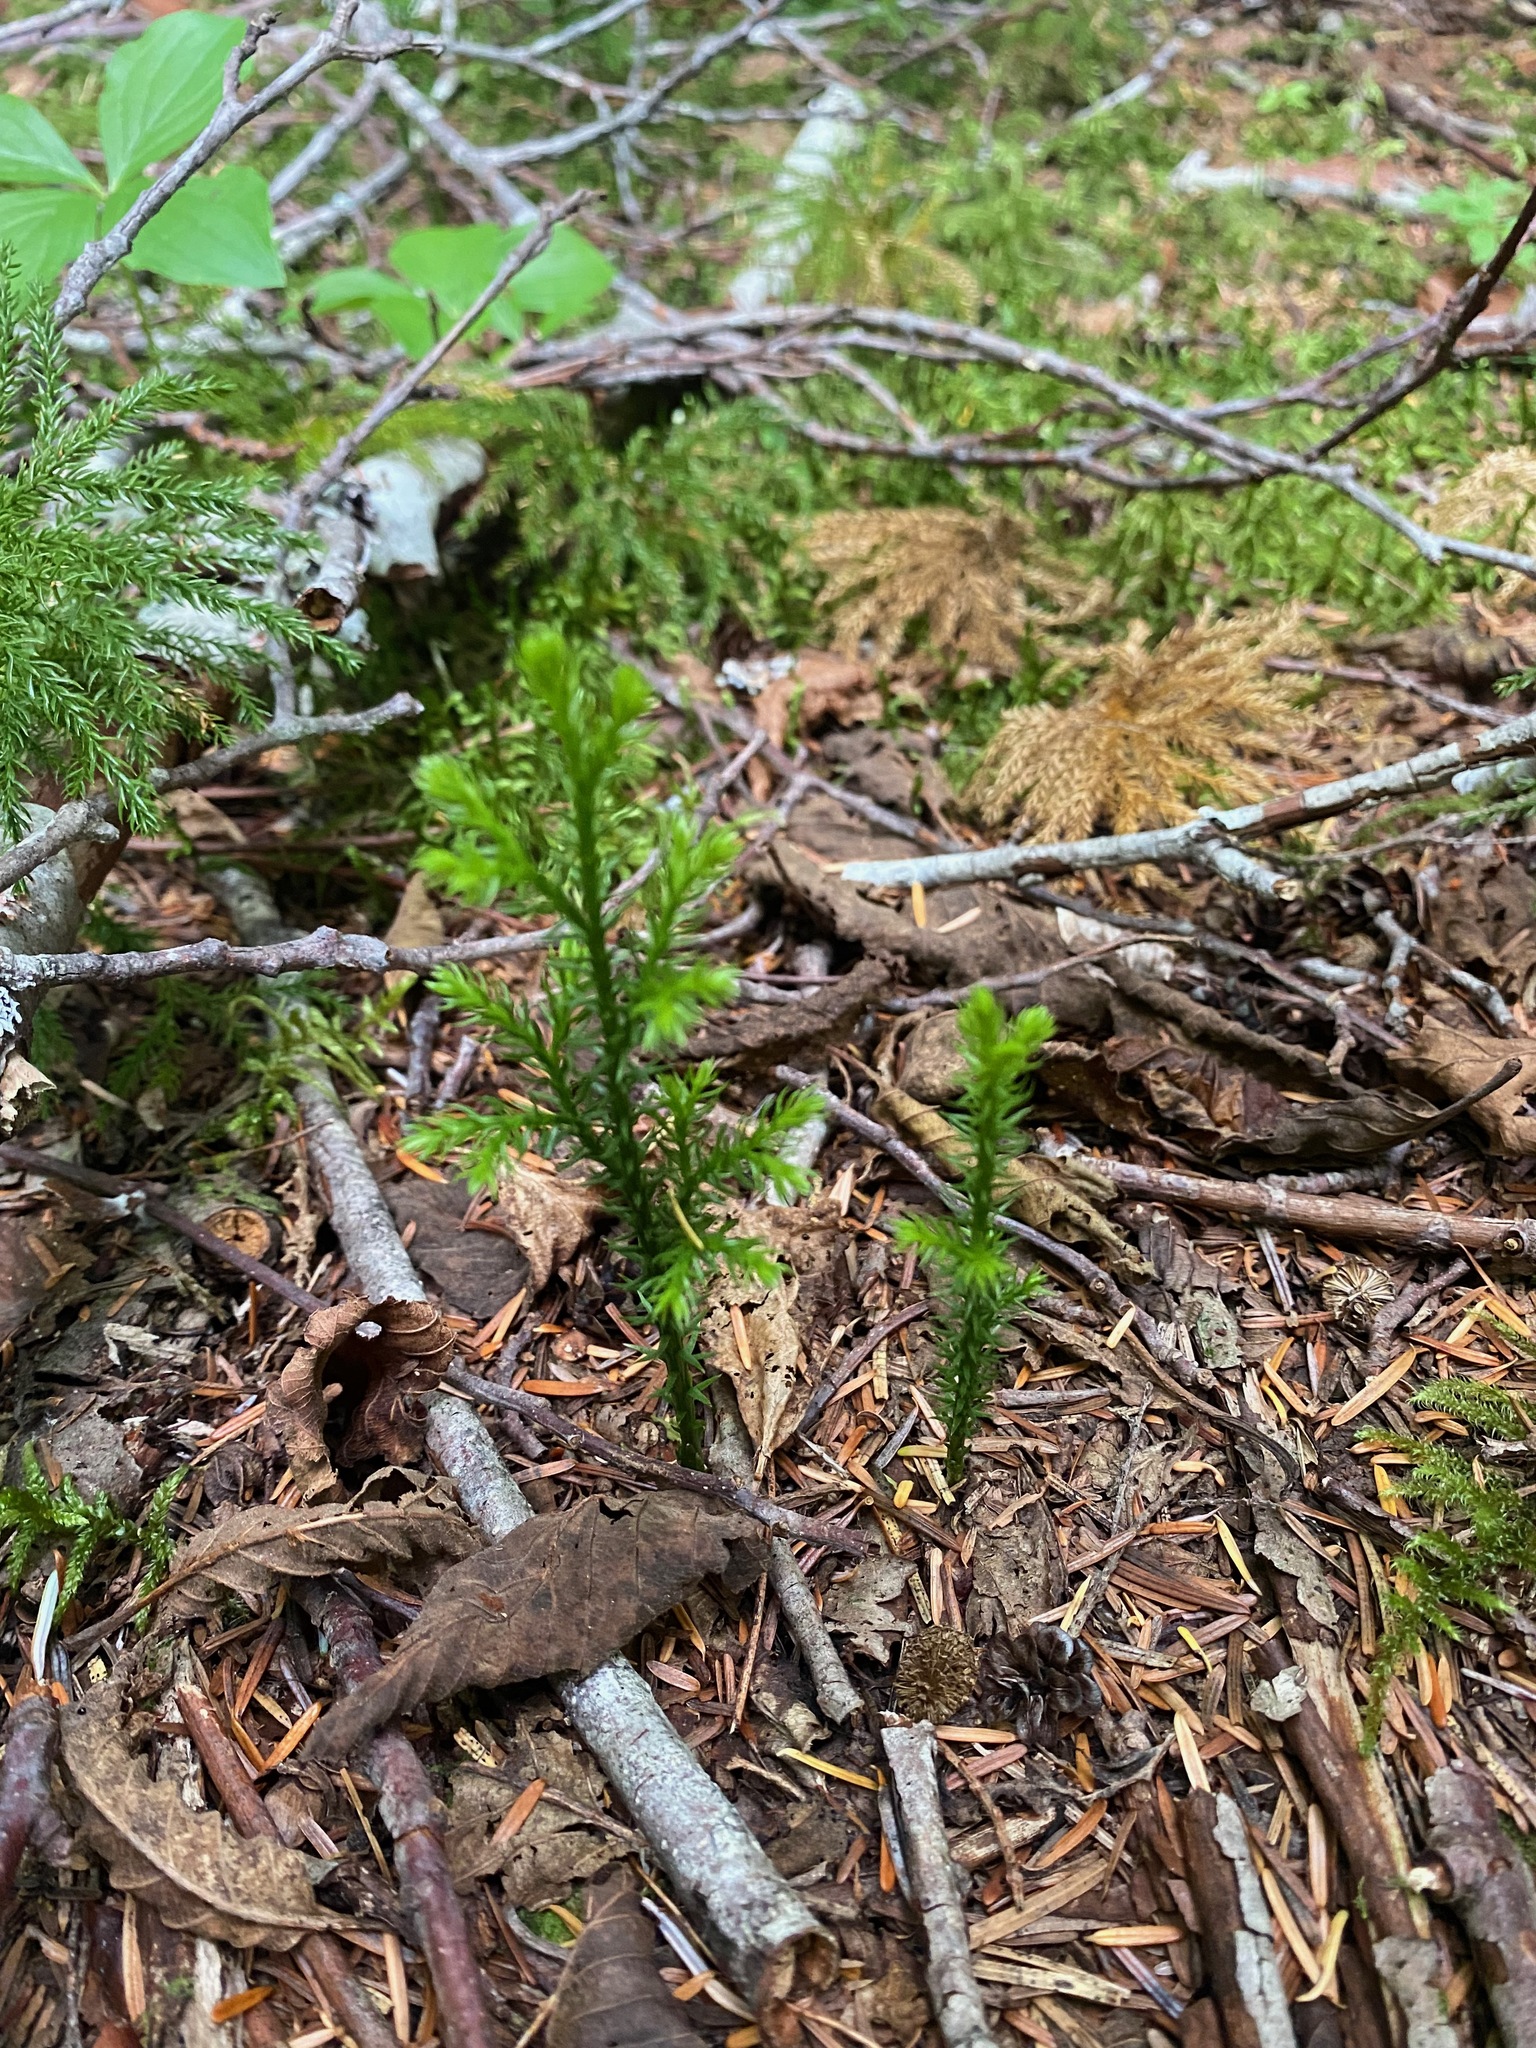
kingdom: Plantae
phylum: Tracheophyta
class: Lycopodiopsida
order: Lycopodiales
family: Lycopodiaceae
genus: Dendrolycopodium
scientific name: Dendrolycopodium dendroideum
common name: Northern tree-clubmoss
